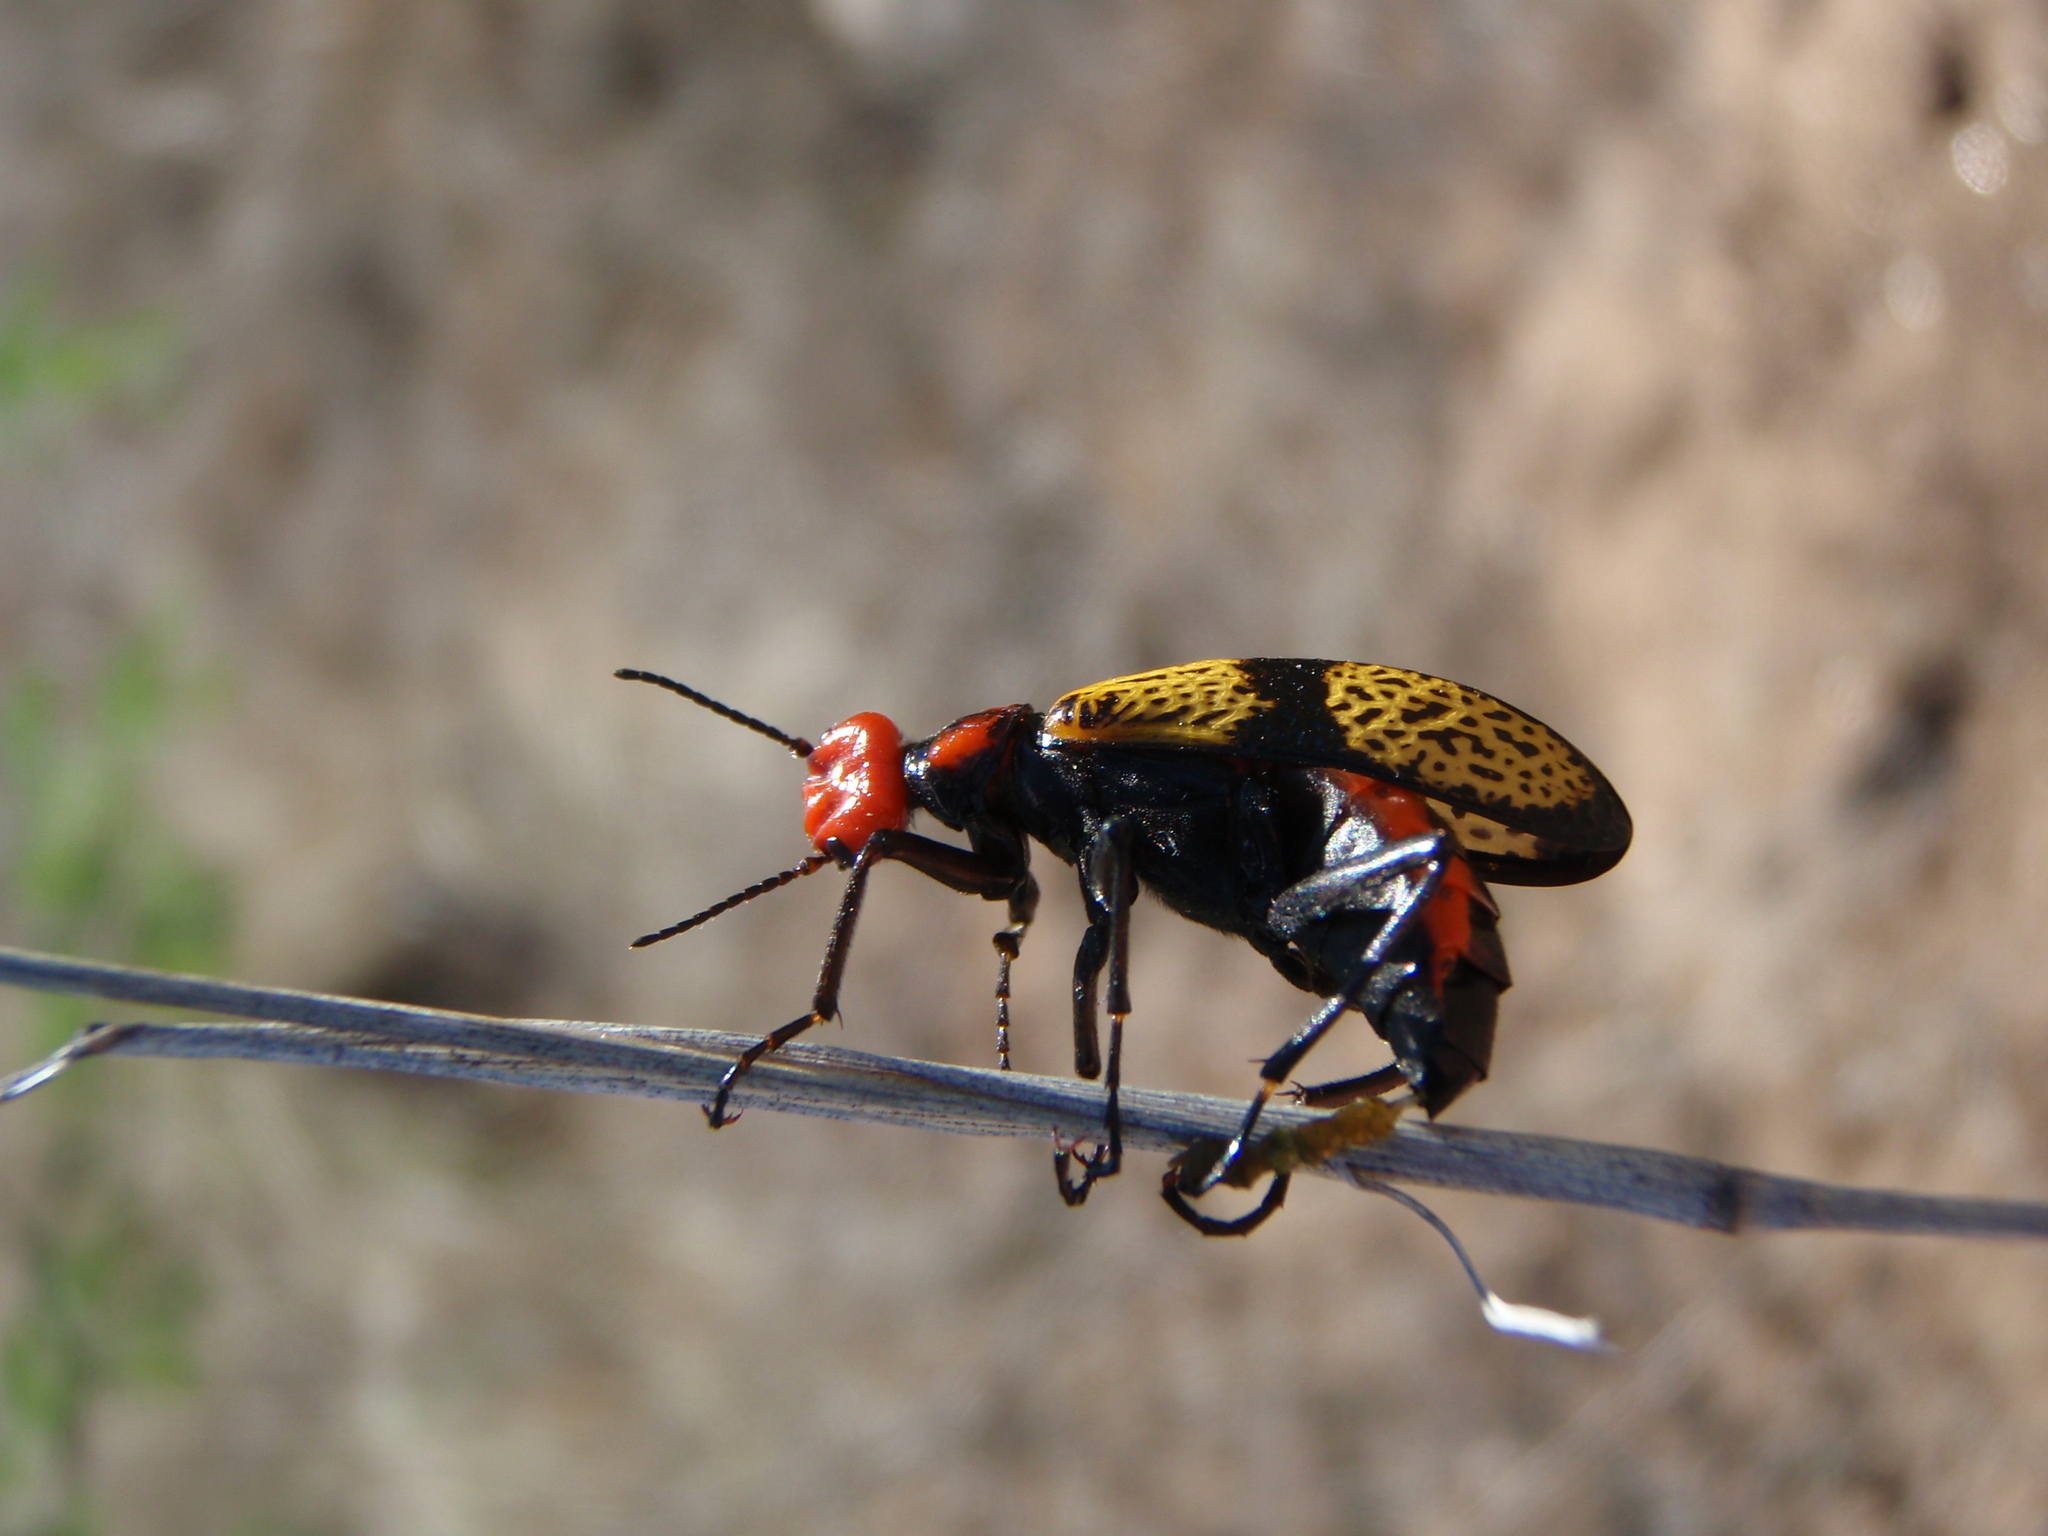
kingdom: Animalia
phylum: Arthropoda
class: Insecta
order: Coleoptera
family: Meloidae
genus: Tegrodera
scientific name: Tegrodera aloga
